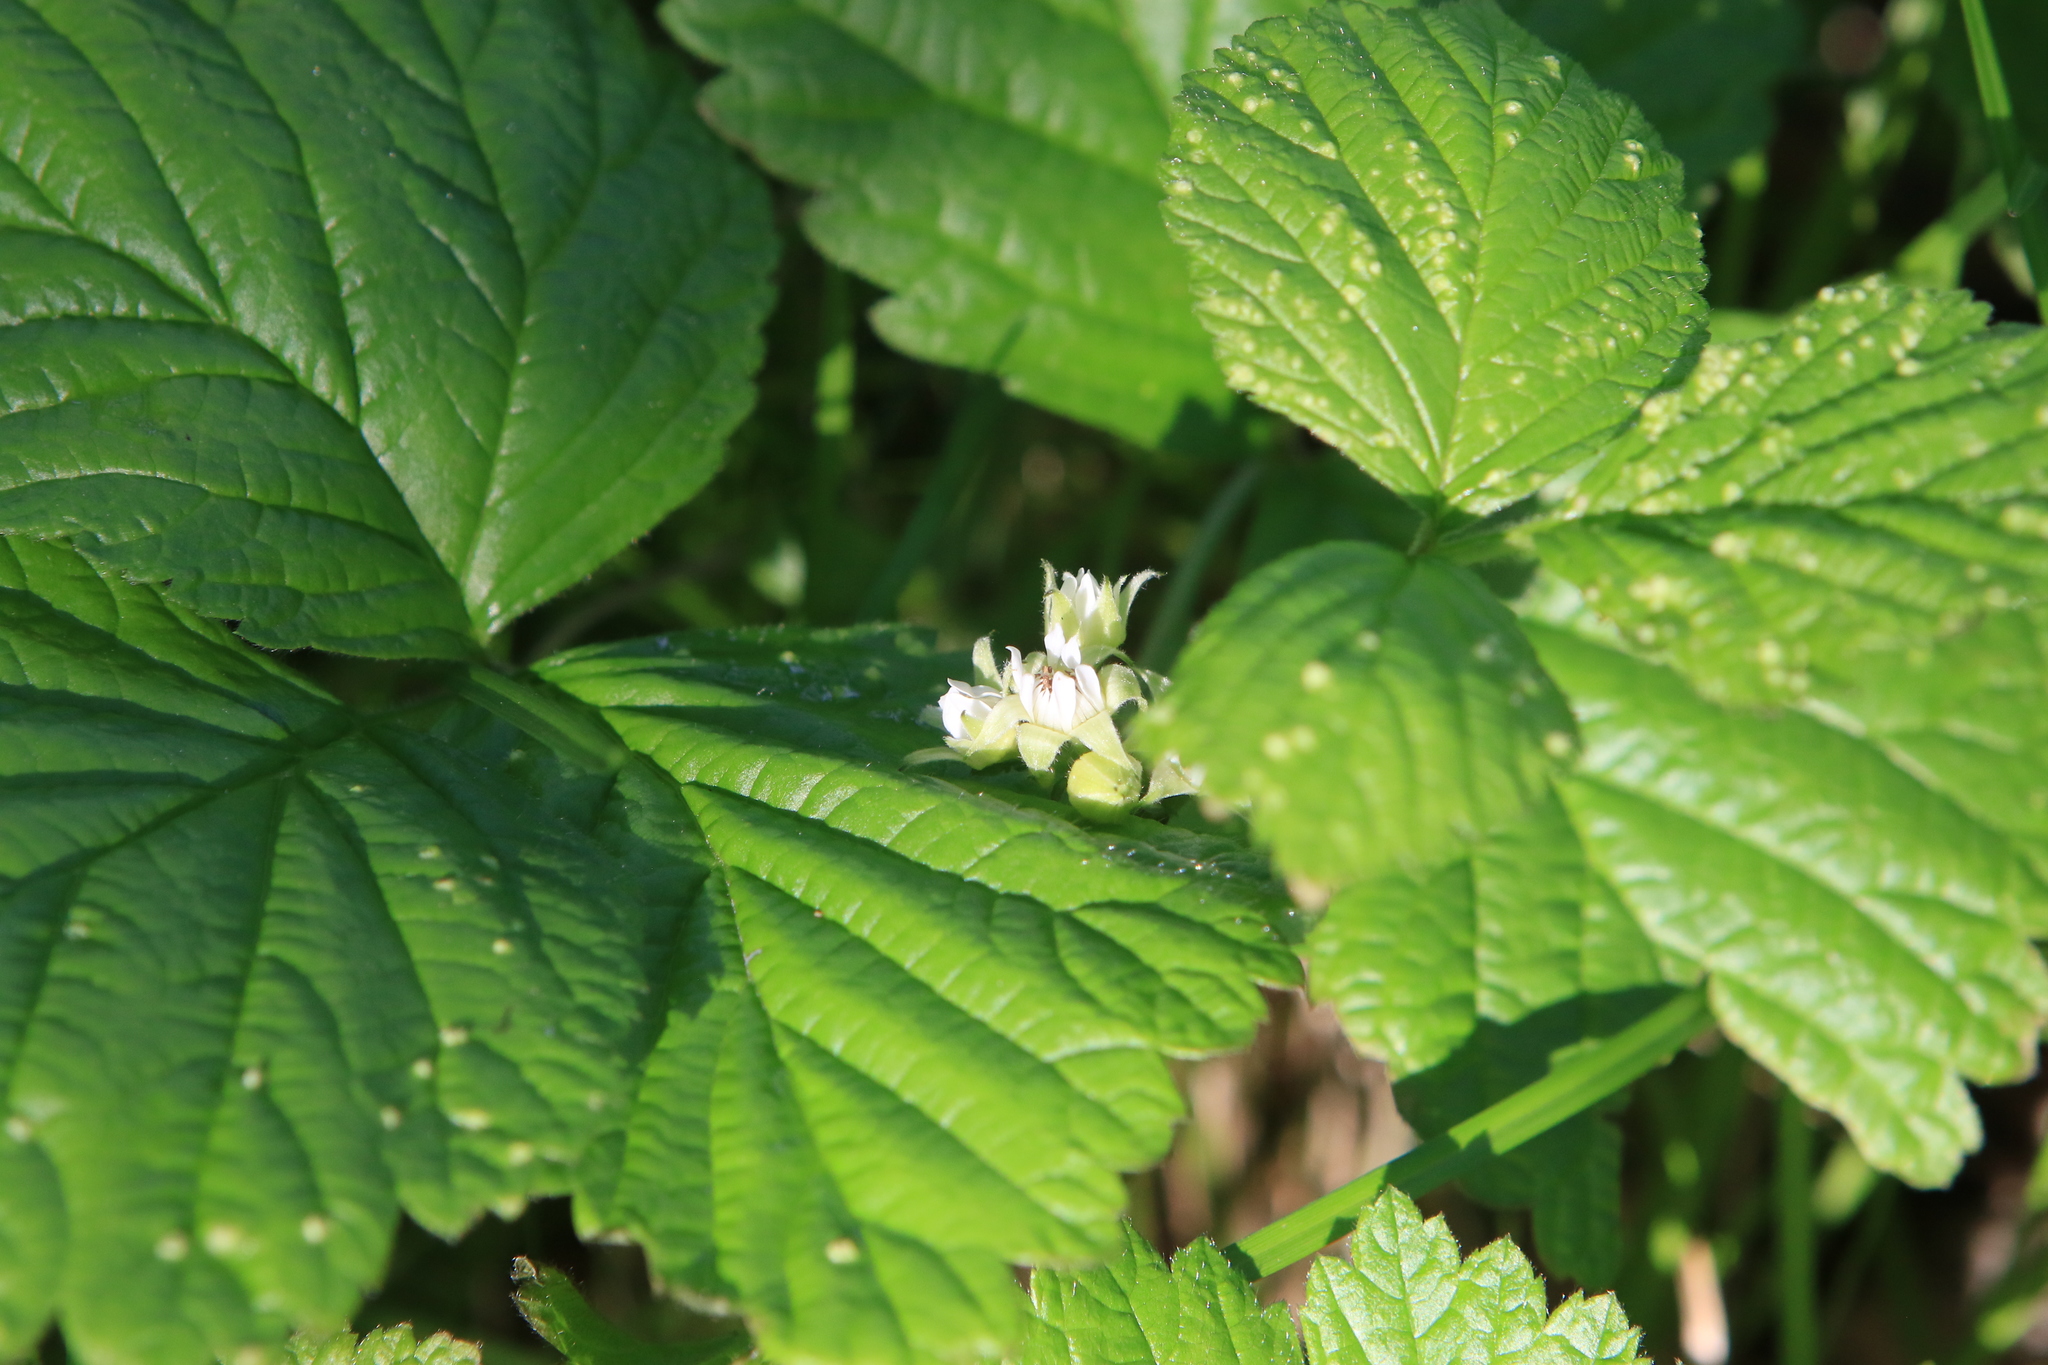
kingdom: Plantae
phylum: Tracheophyta
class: Magnoliopsida
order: Rosales
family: Rosaceae
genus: Rubus
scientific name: Rubus saxatilis
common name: Stone bramble
